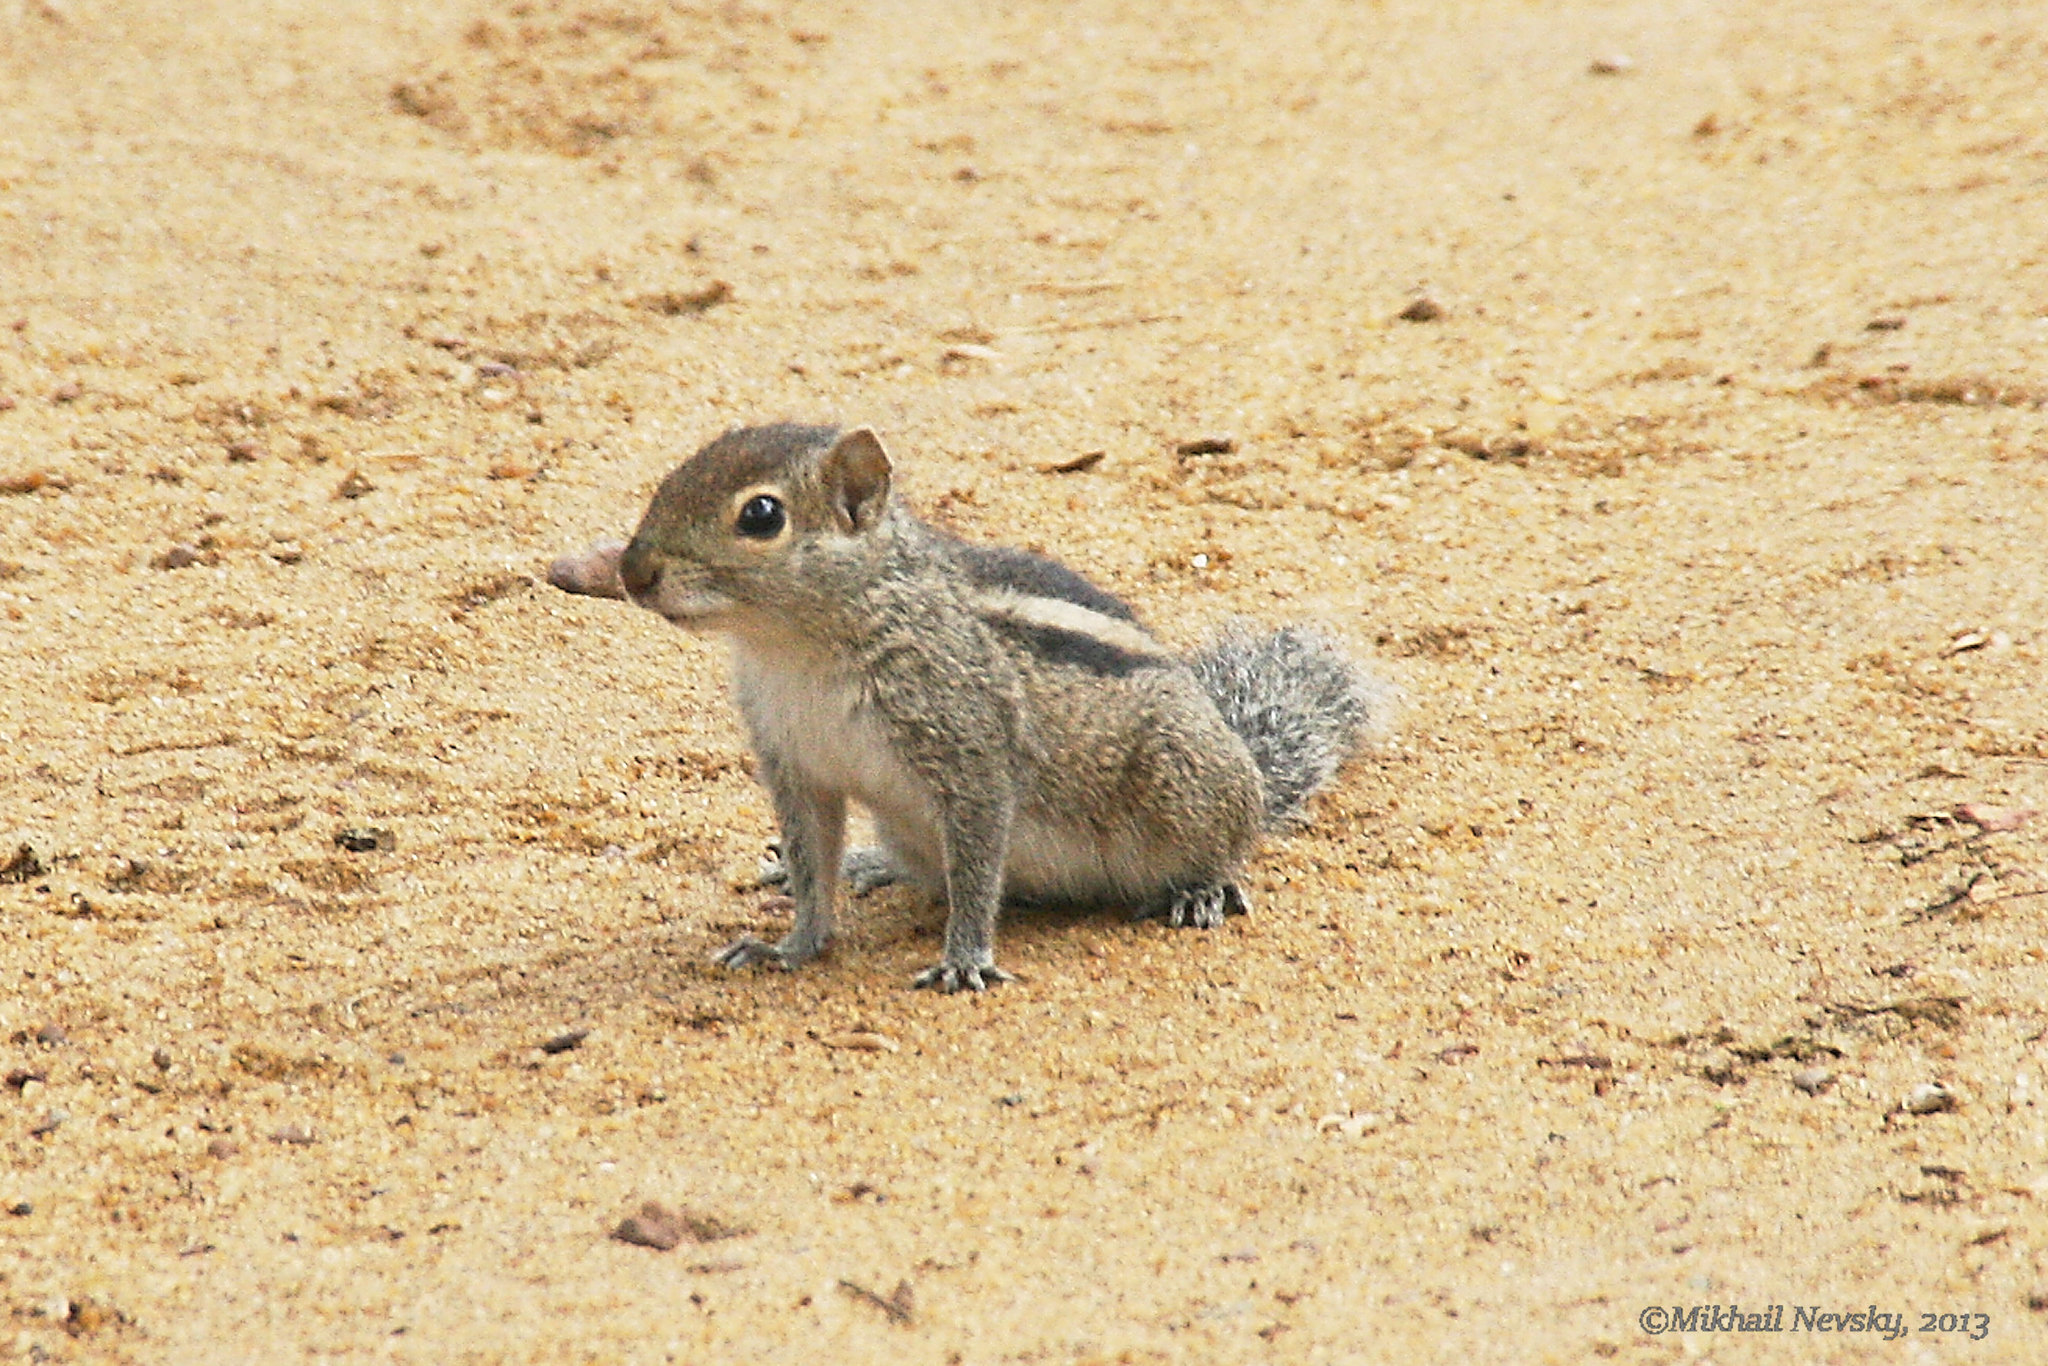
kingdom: Animalia
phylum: Chordata
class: Mammalia
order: Rodentia
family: Sciuridae
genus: Funambulus
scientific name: Funambulus palmarum
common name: Indian palm squirrel
